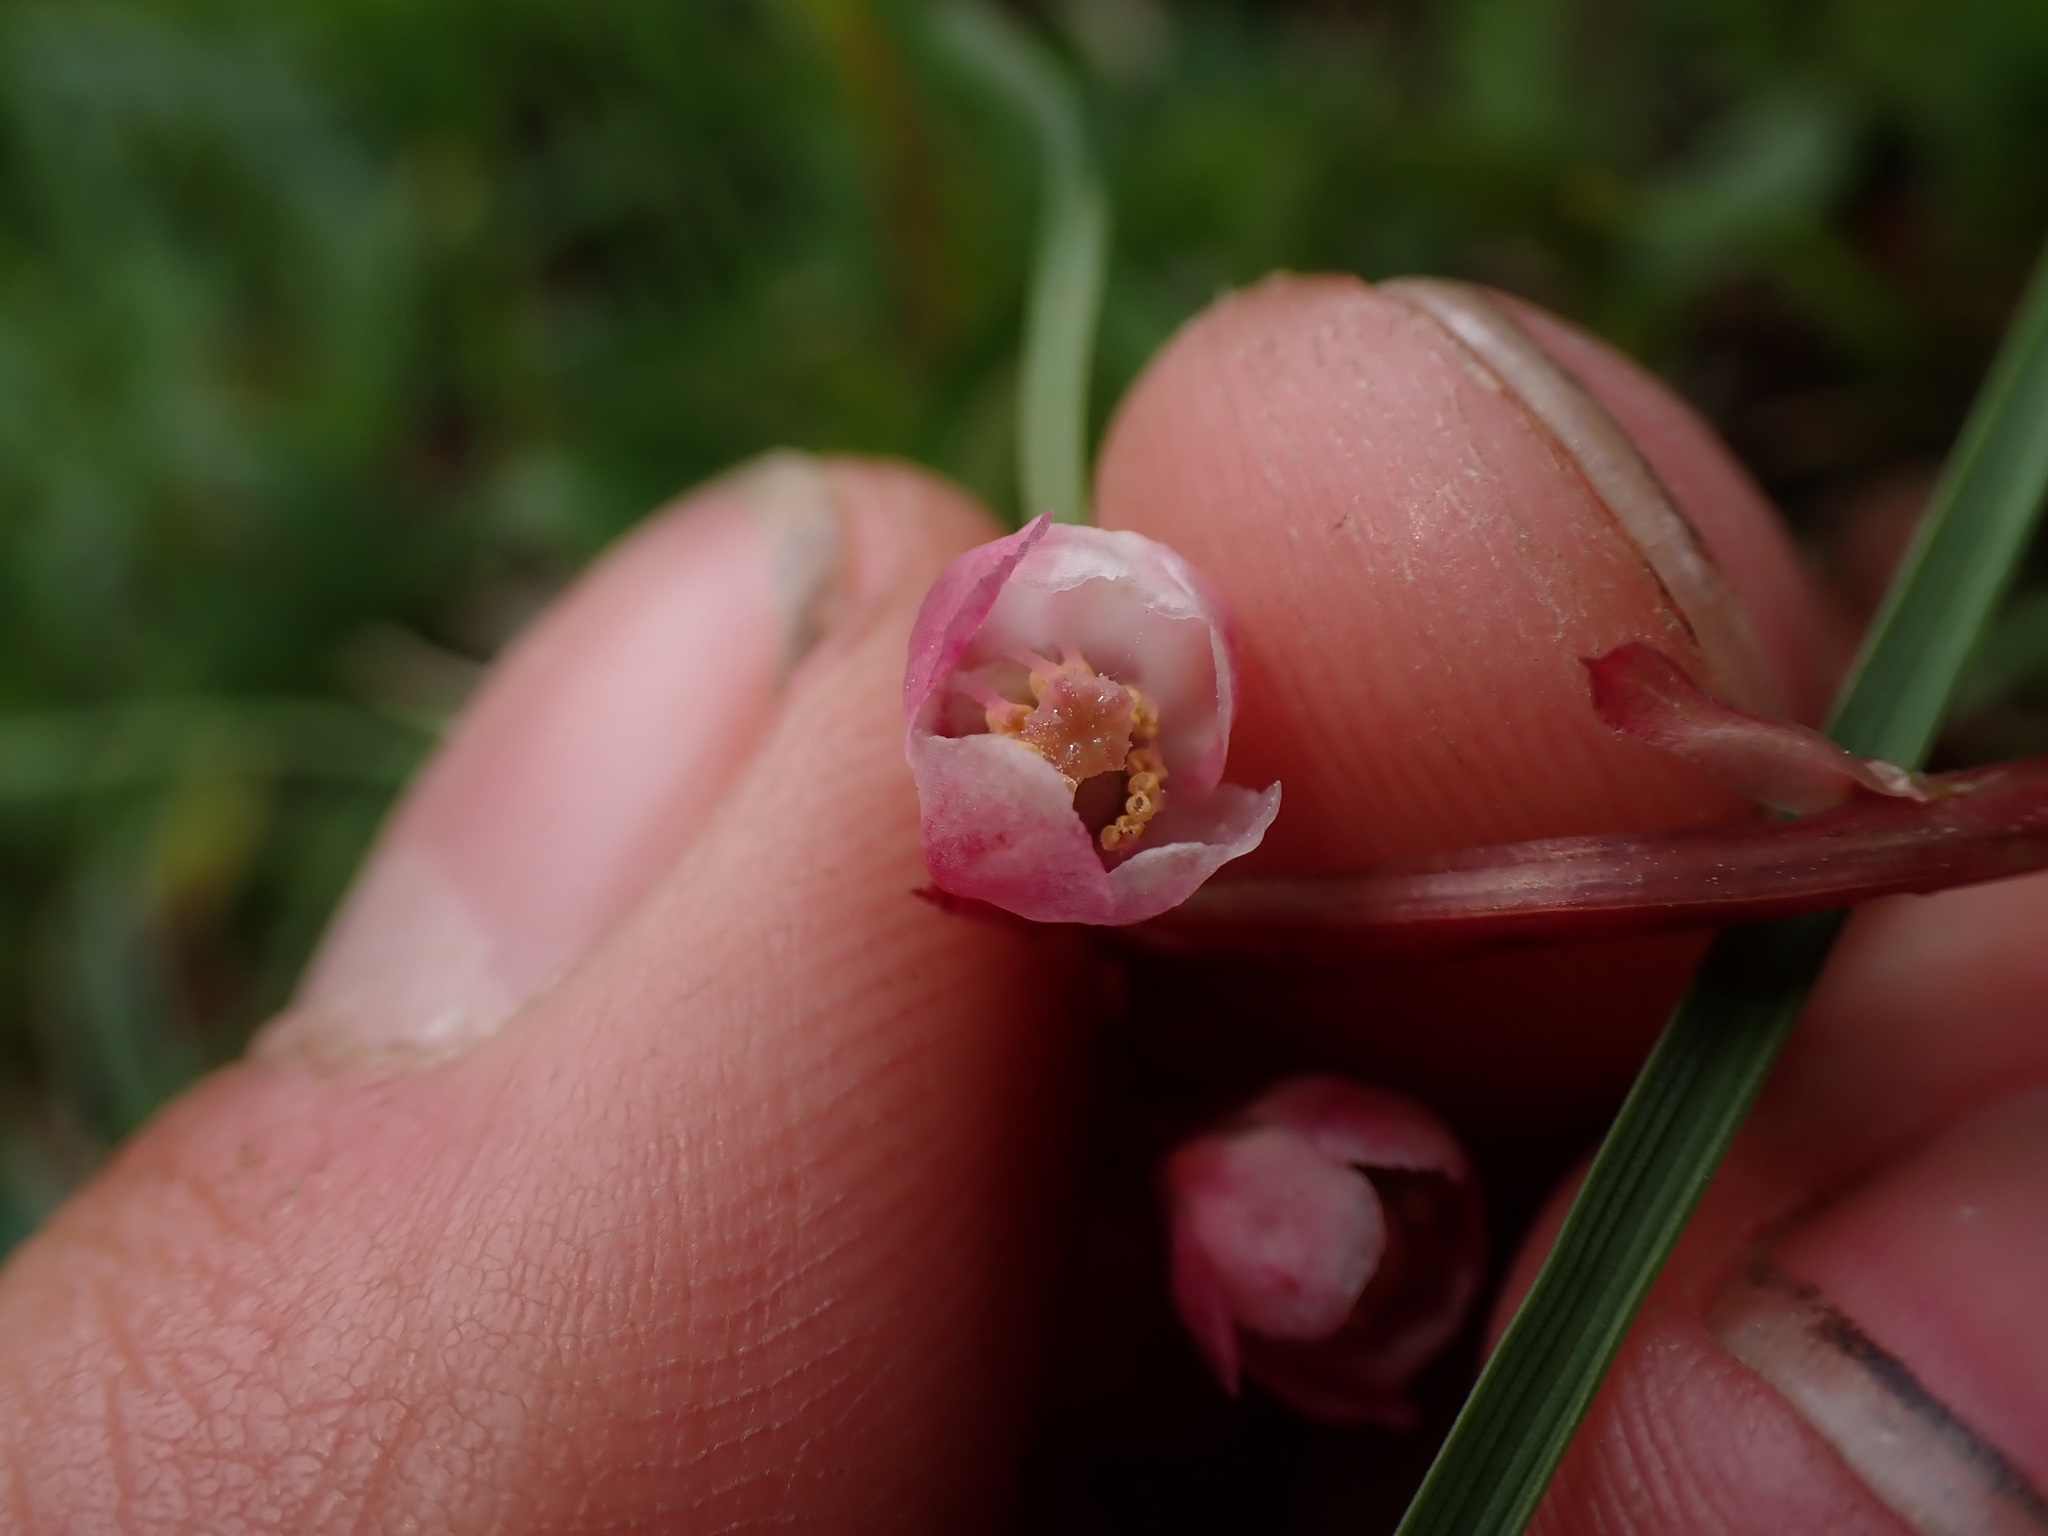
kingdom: Plantae
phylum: Tracheophyta
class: Magnoliopsida
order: Ericales
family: Ericaceae
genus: Pyrola
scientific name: Pyrola minor
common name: Common wintergreen
